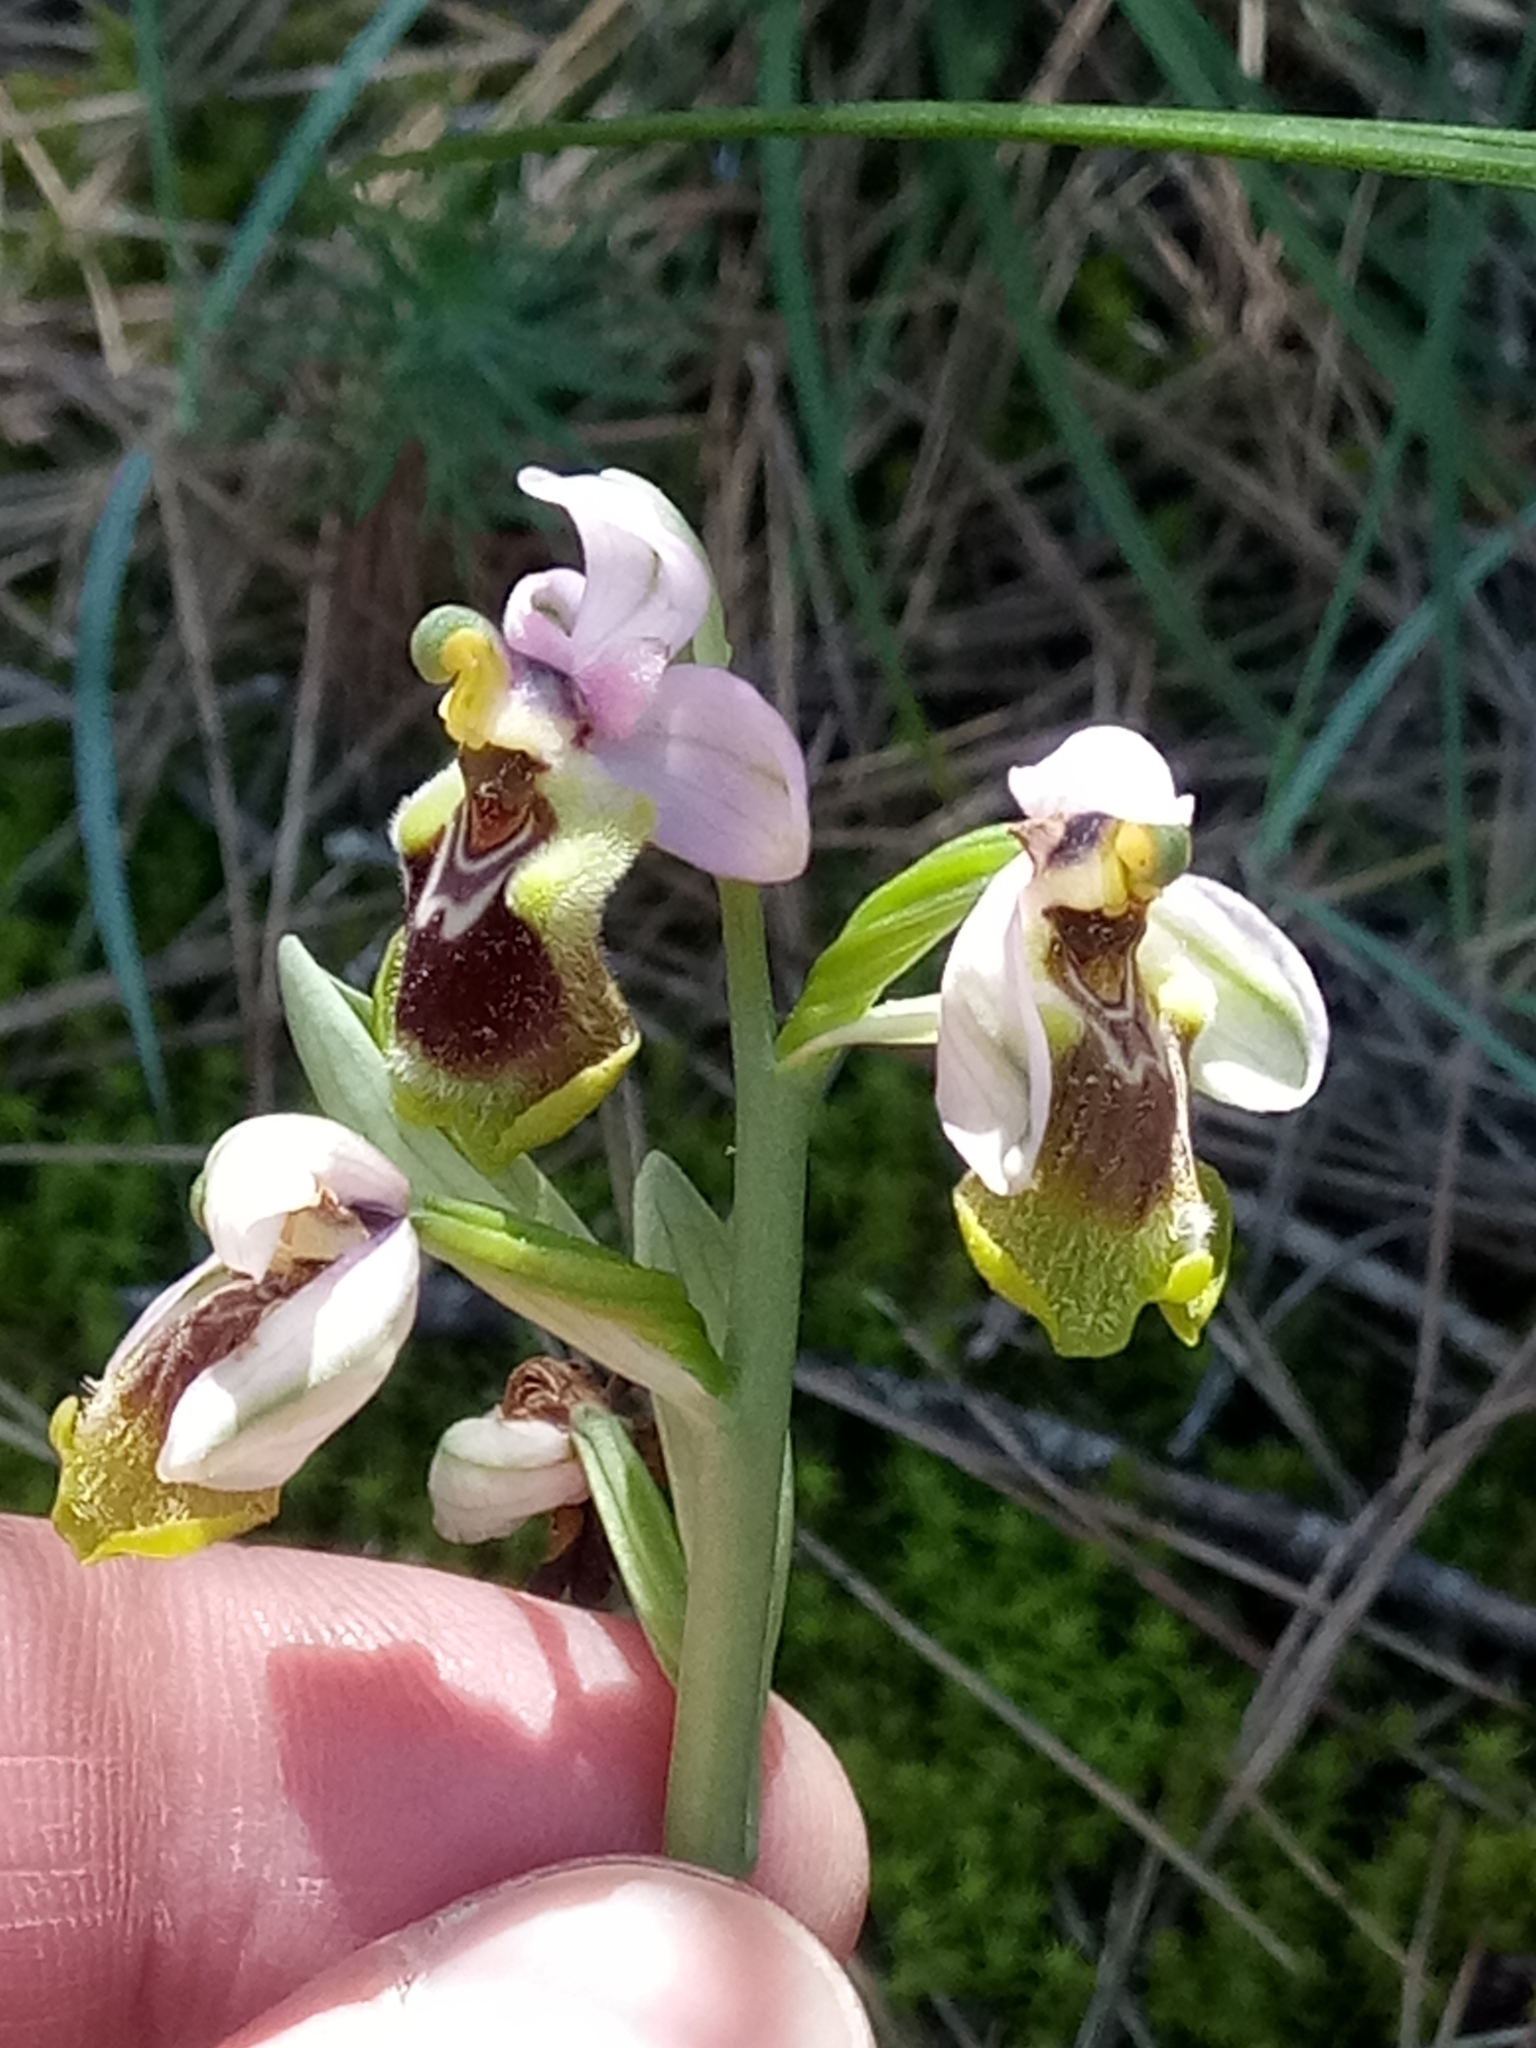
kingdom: Plantae
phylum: Tracheophyta
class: Liliopsida
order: Asparagales
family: Orchidaceae
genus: Ophrys
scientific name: Ophrys tenthredinifera
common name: Sawfly orchid
